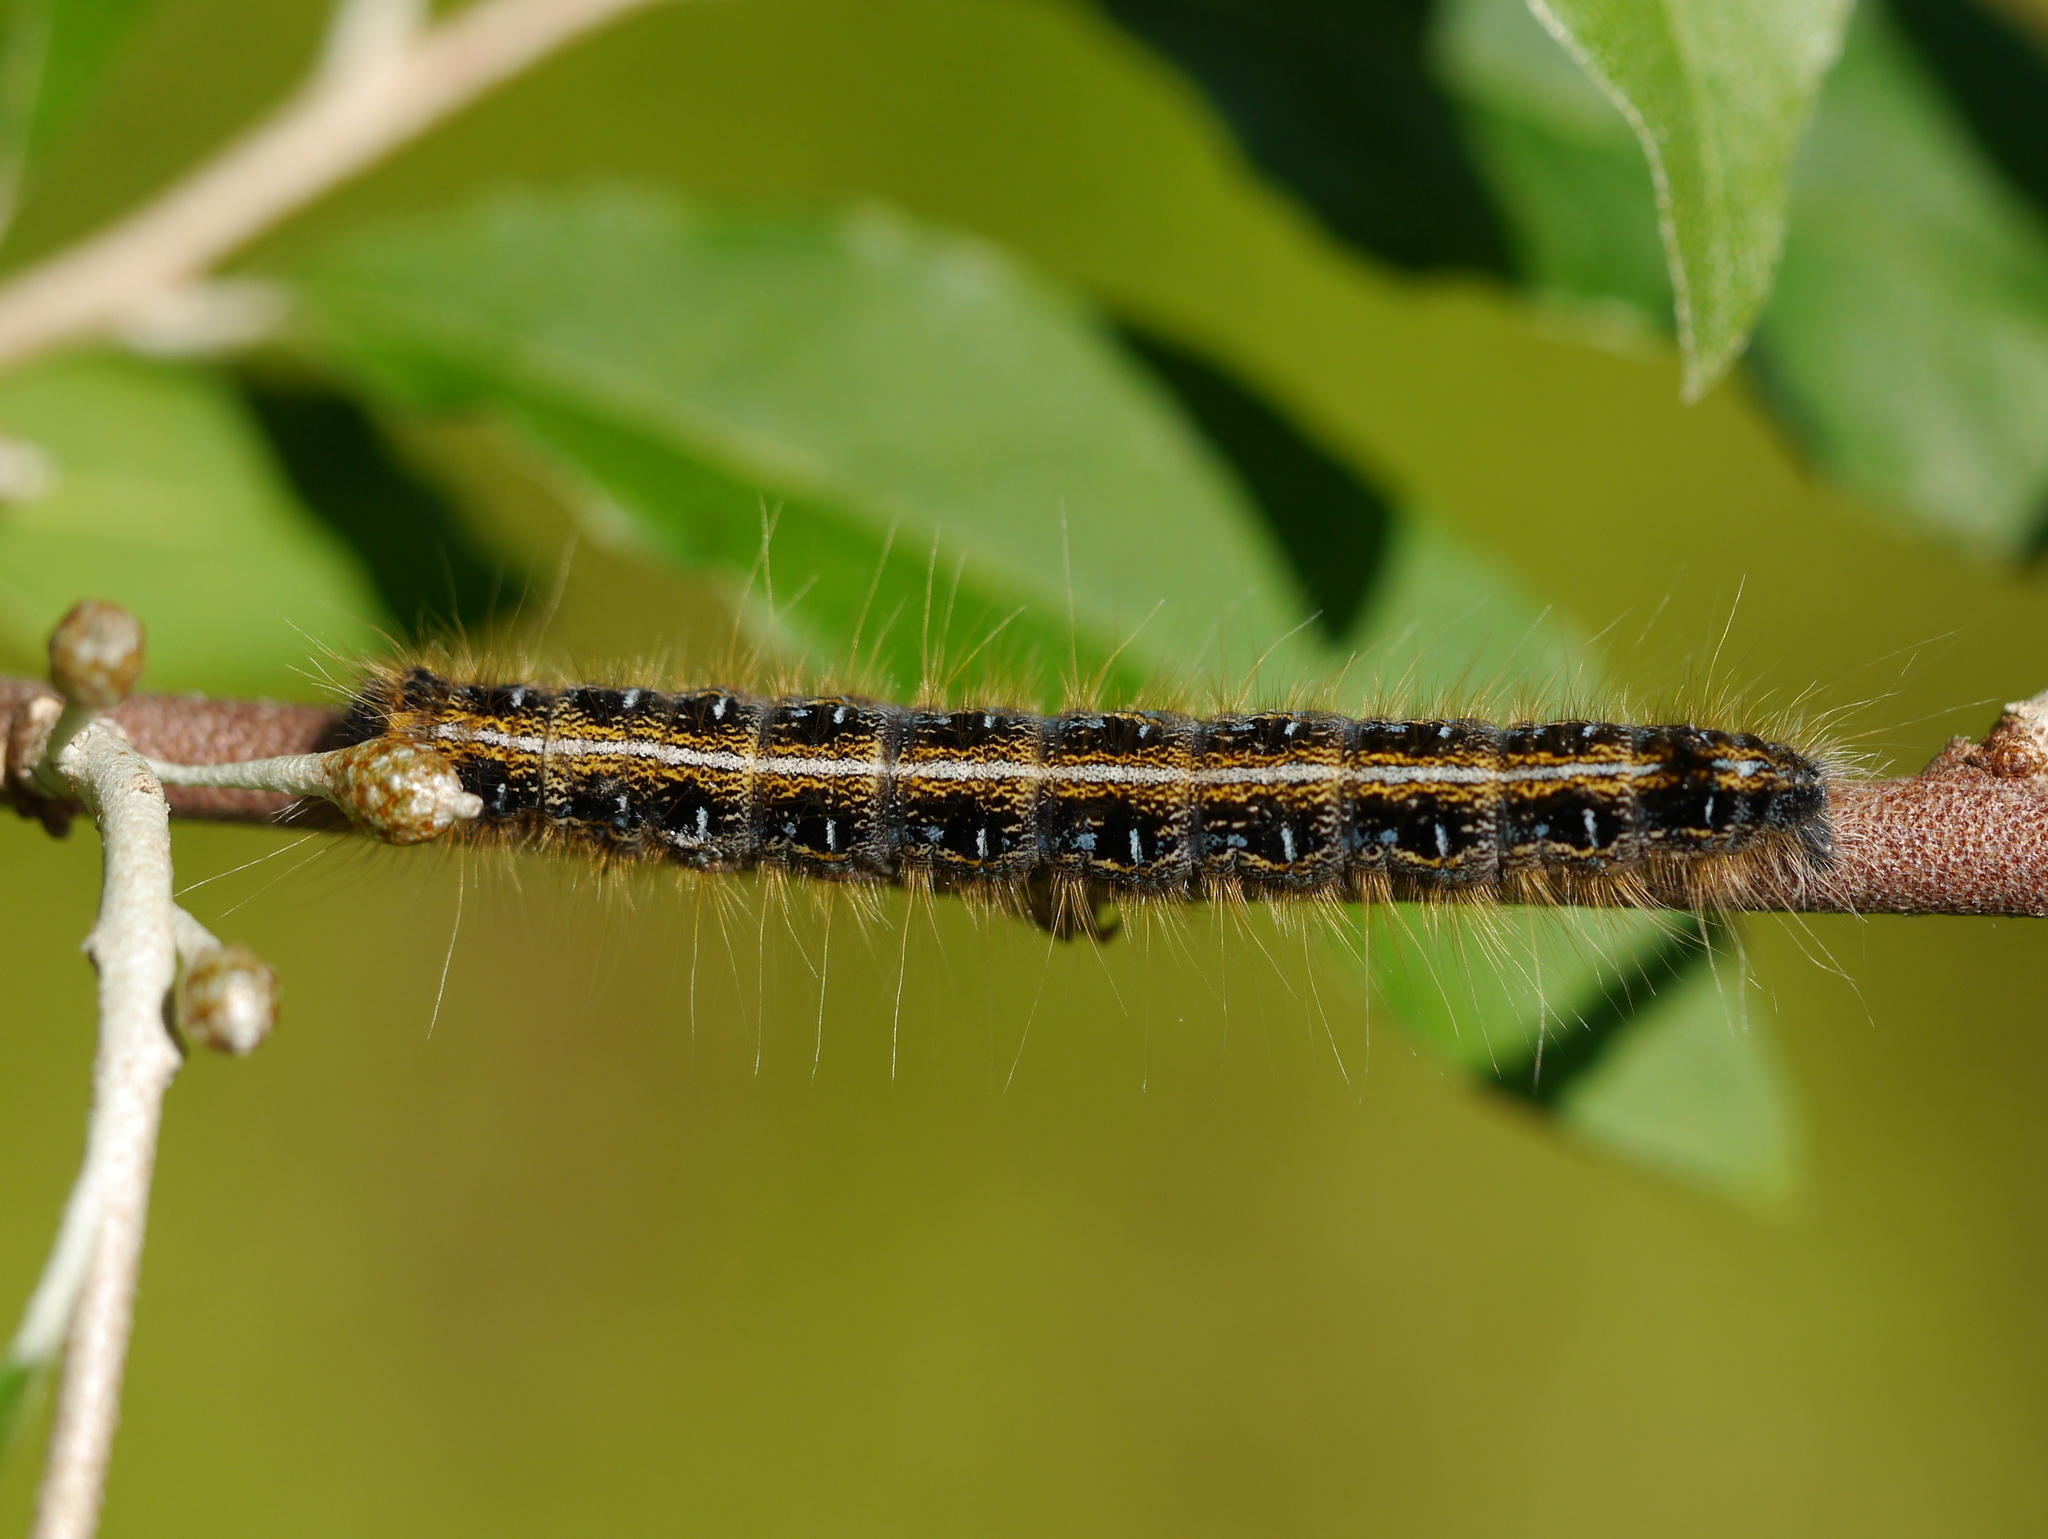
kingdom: Animalia
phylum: Arthropoda
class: Insecta
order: Lepidoptera
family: Lasiocampidae
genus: Malacosoma
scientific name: Malacosoma americana
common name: Eastern tent caterpillar moth
